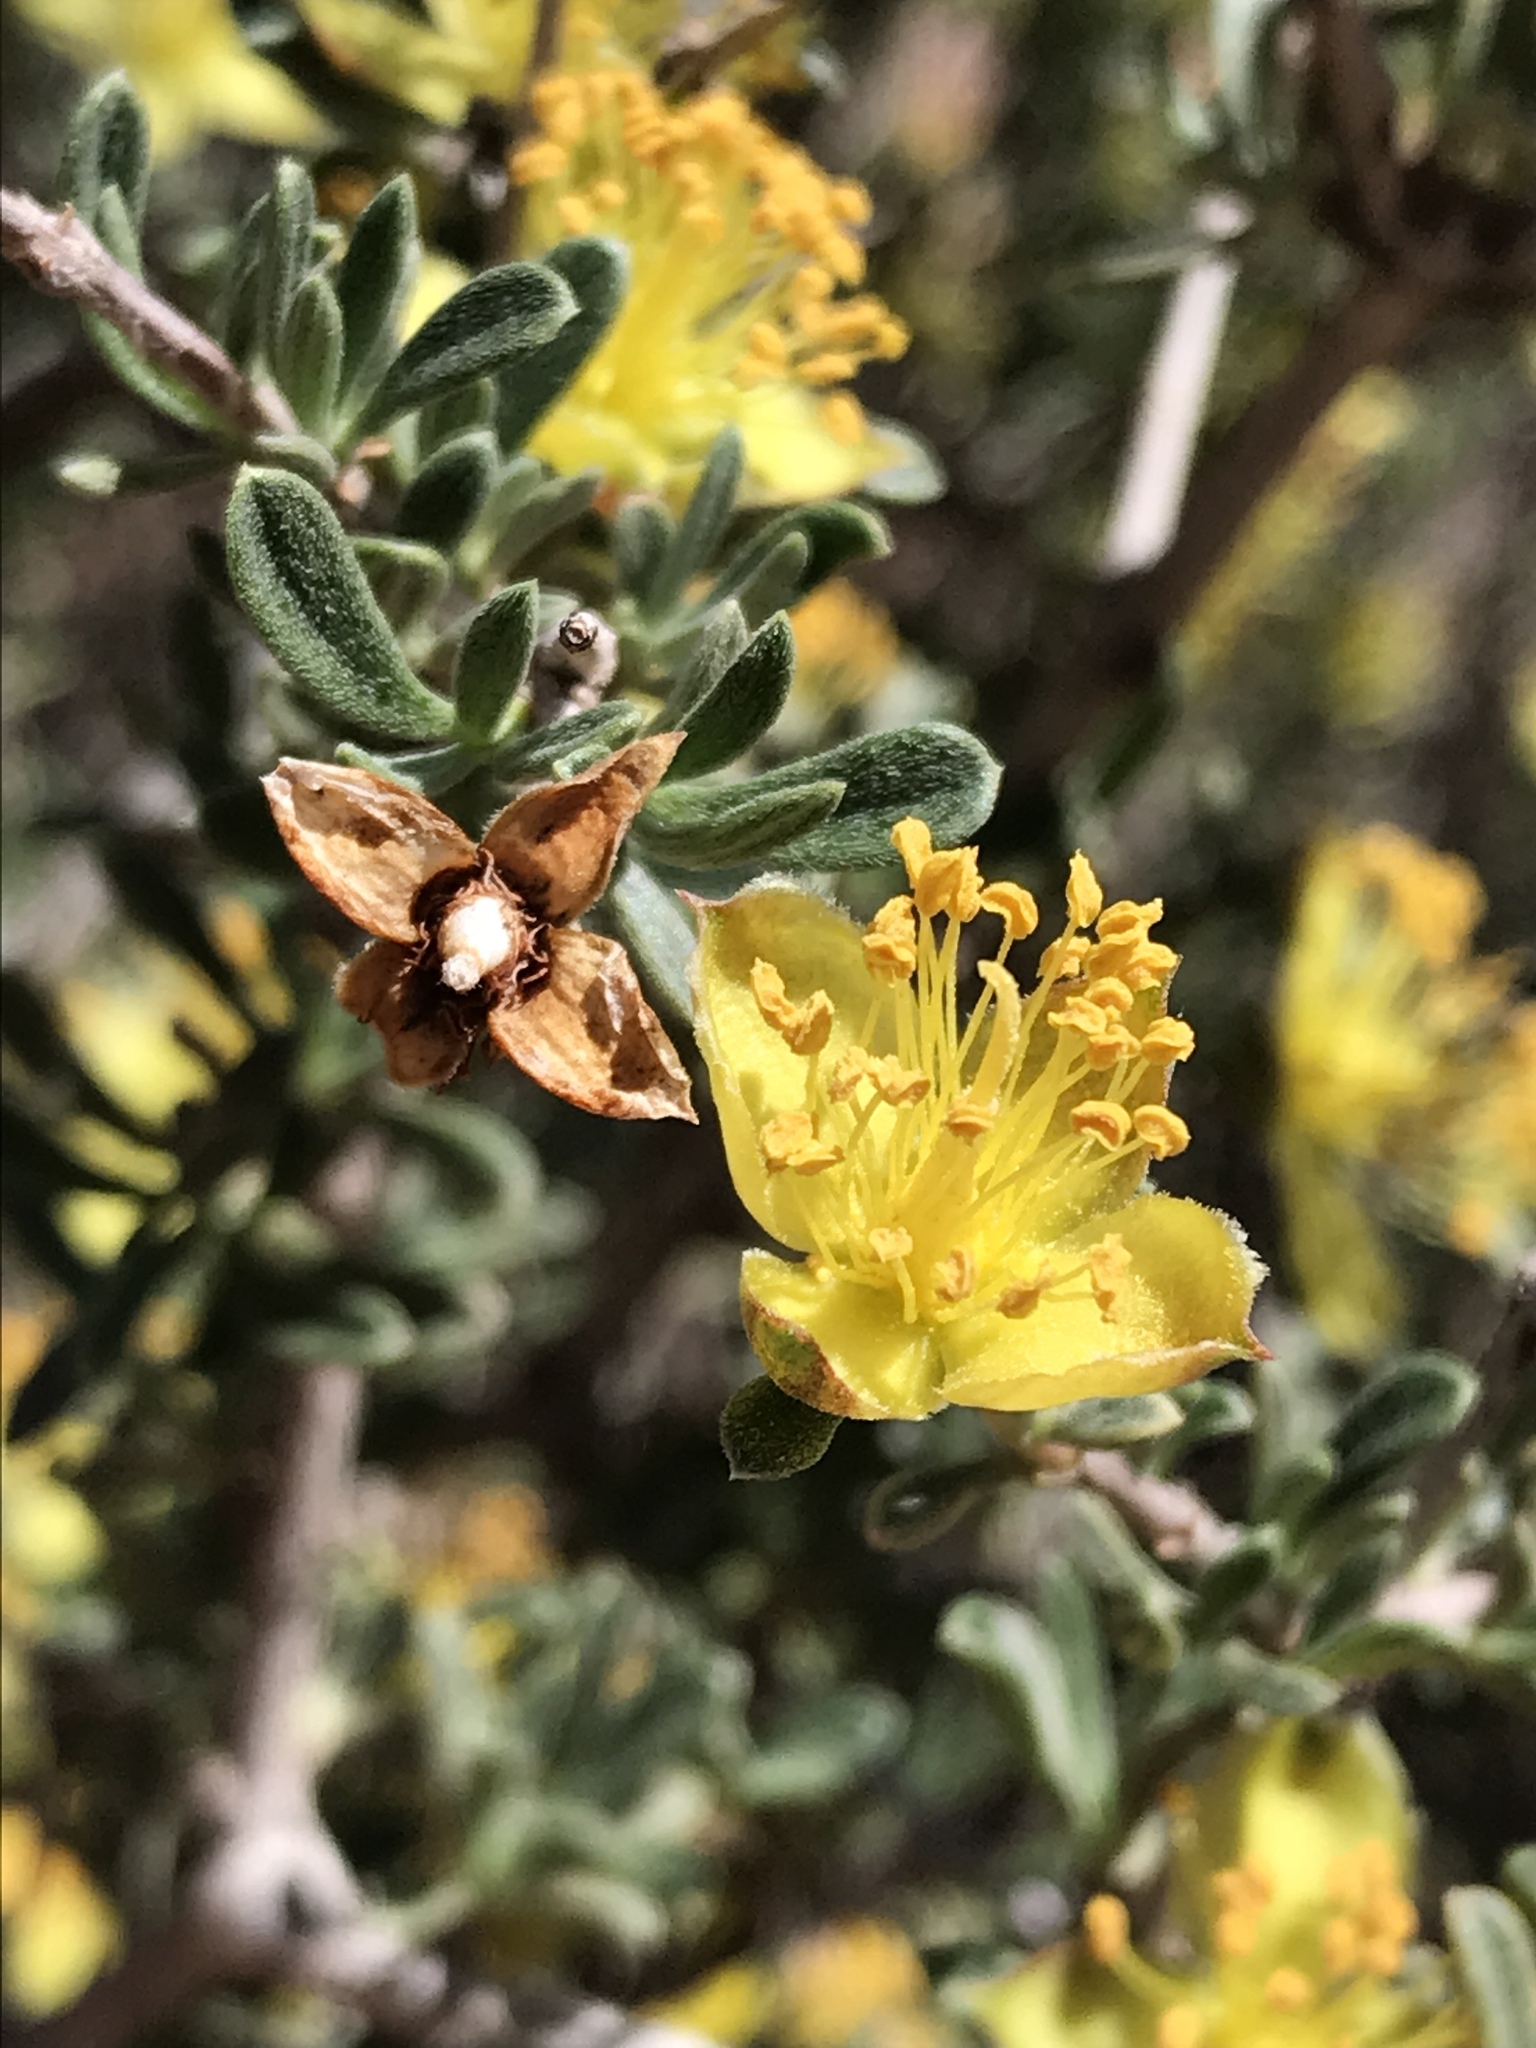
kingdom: Plantae
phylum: Tracheophyta
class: Magnoliopsida
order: Rosales
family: Rosaceae
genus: Coleogyne
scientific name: Coleogyne ramosissima
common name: Blackbrush
